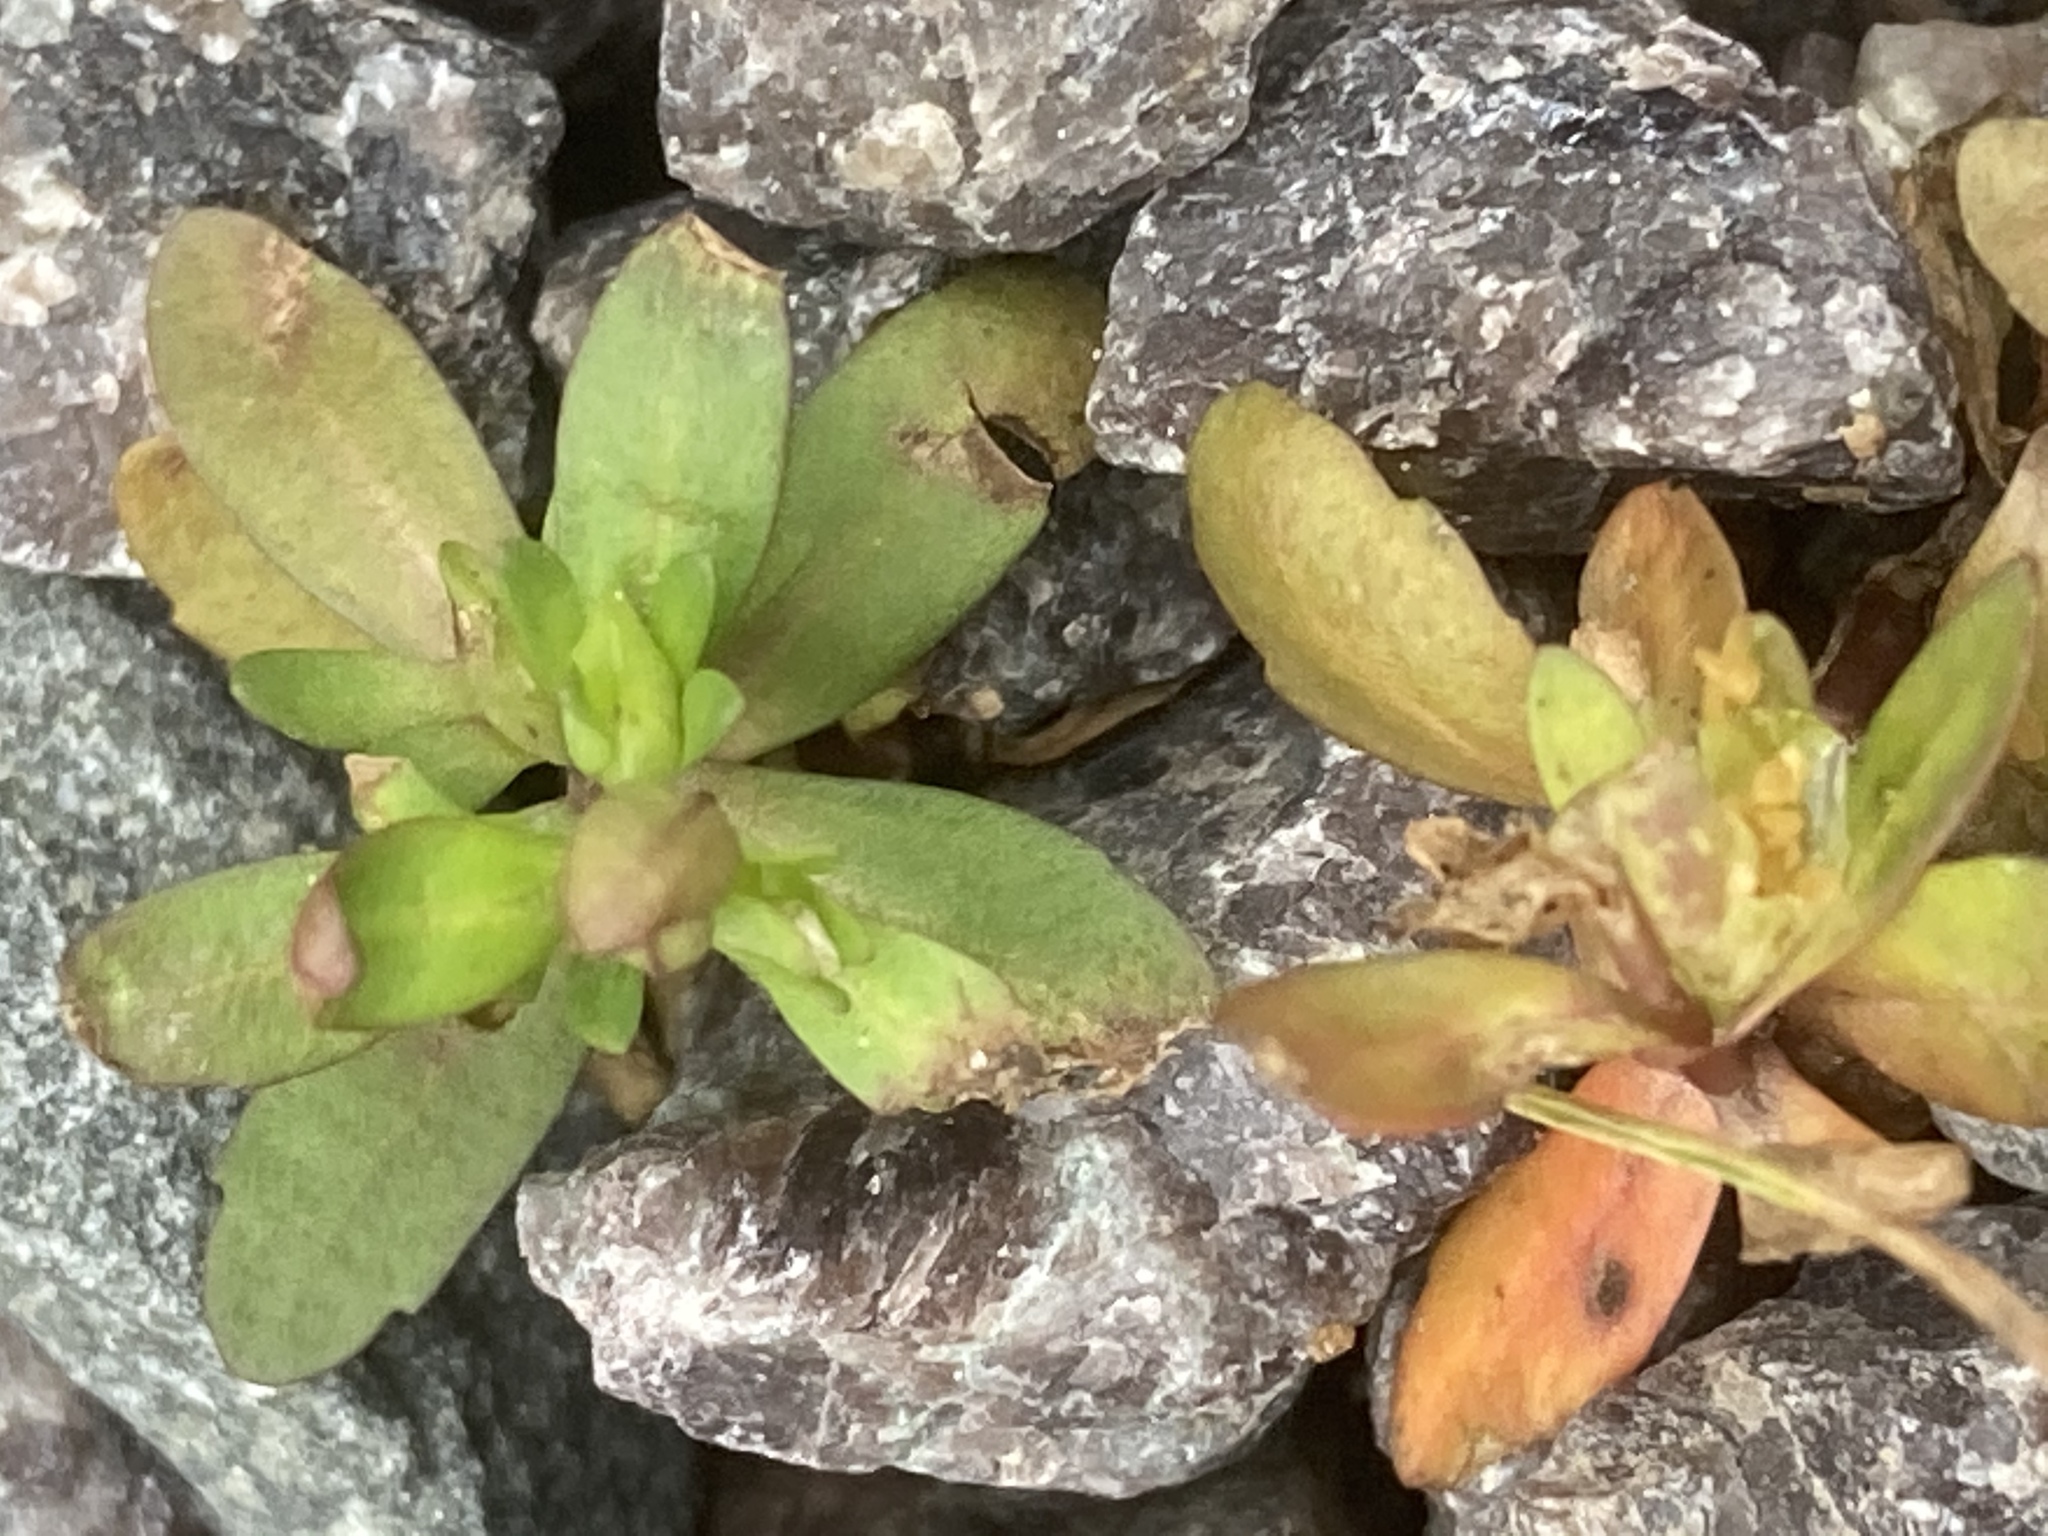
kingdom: Plantae
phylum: Tracheophyta
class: Magnoliopsida
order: Lamiales
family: Plantaginaceae
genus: Veronica
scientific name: Veronica peregrina
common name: Neckweed
